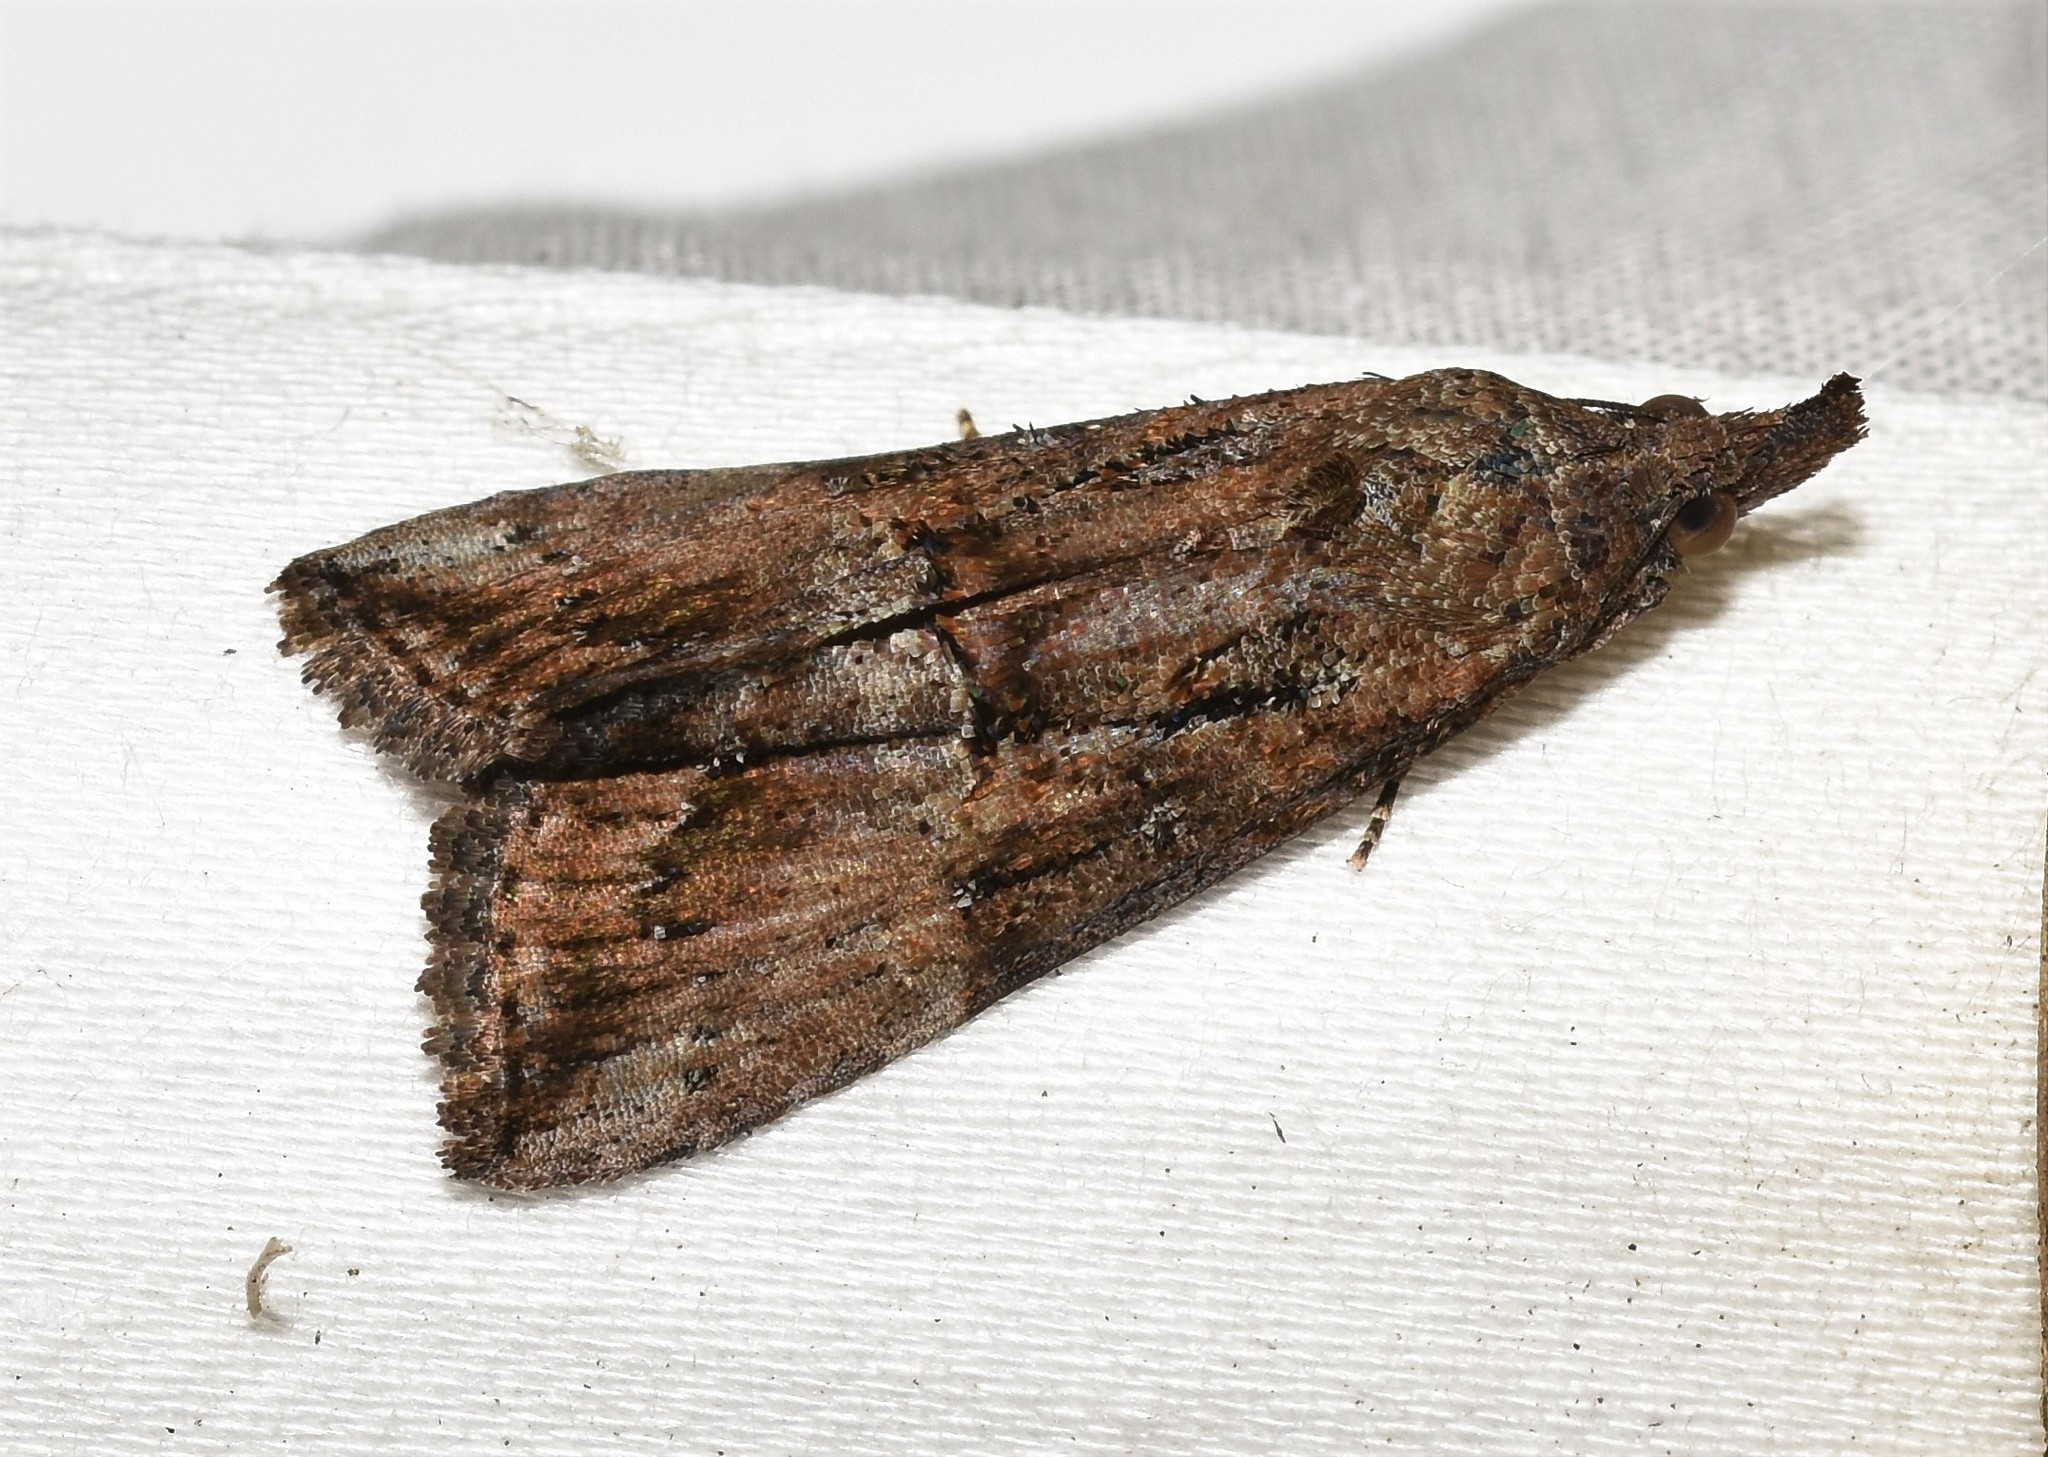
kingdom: Animalia
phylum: Arthropoda
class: Insecta
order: Lepidoptera
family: Erebidae
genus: Hypena
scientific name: Hypena scabra
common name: Green cloverworm
